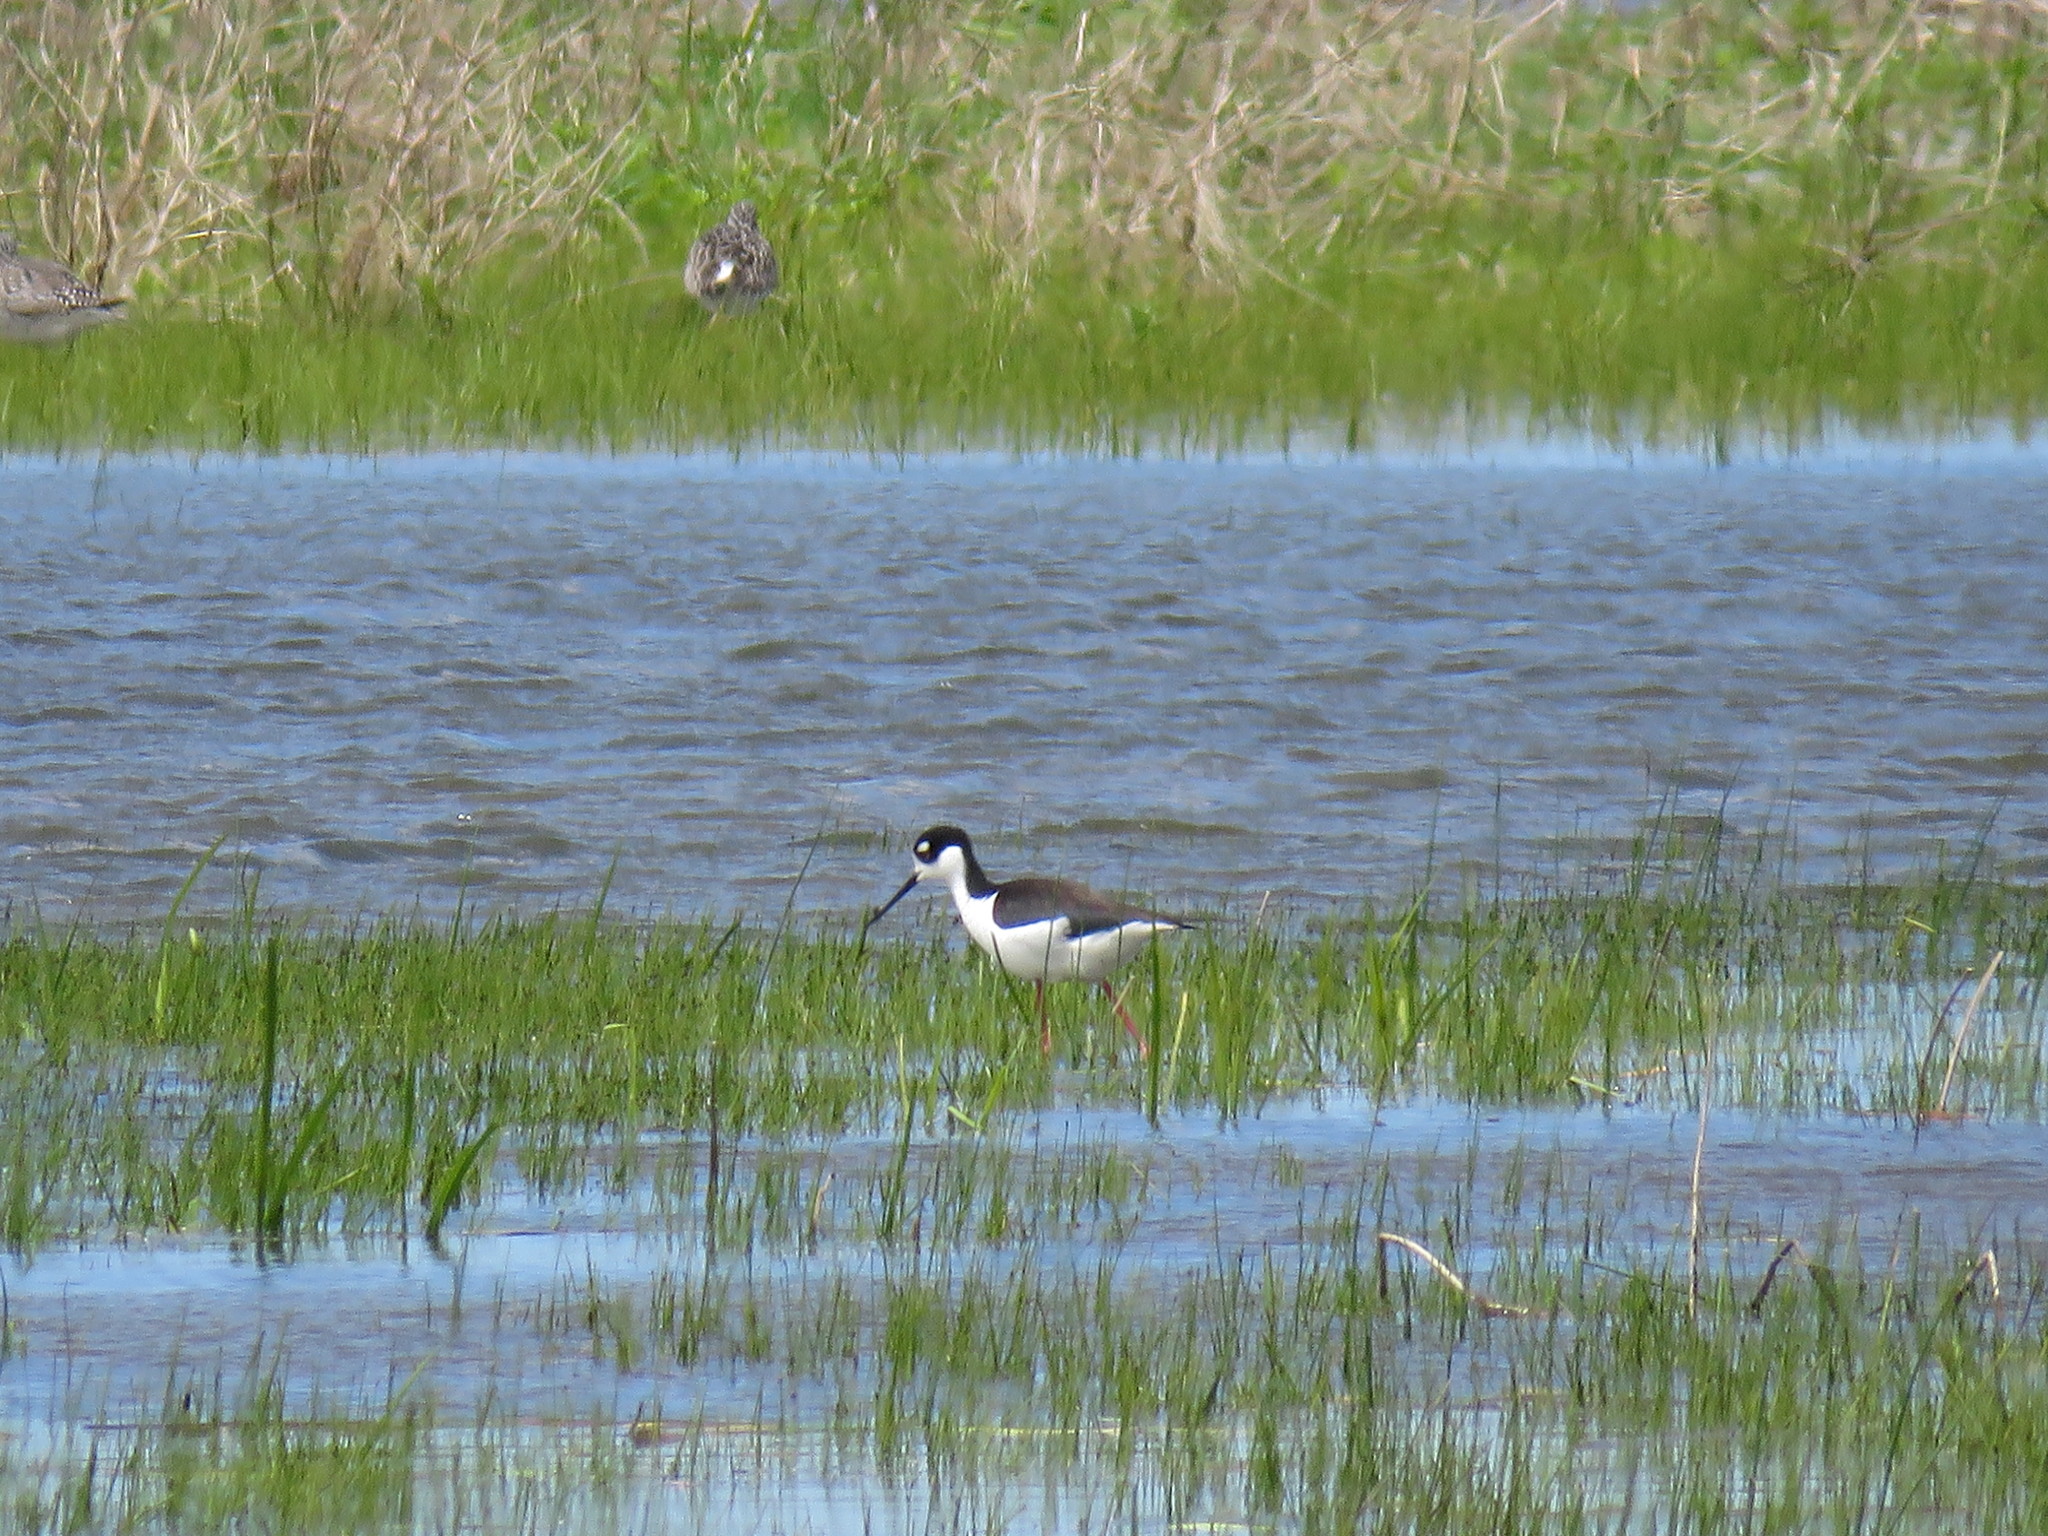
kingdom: Animalia
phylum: Chordata
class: Aves
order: Charadriiformes
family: Recurvirostridae
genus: Himantopus
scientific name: Himantopus mexicanus
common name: Black-necked stilt
